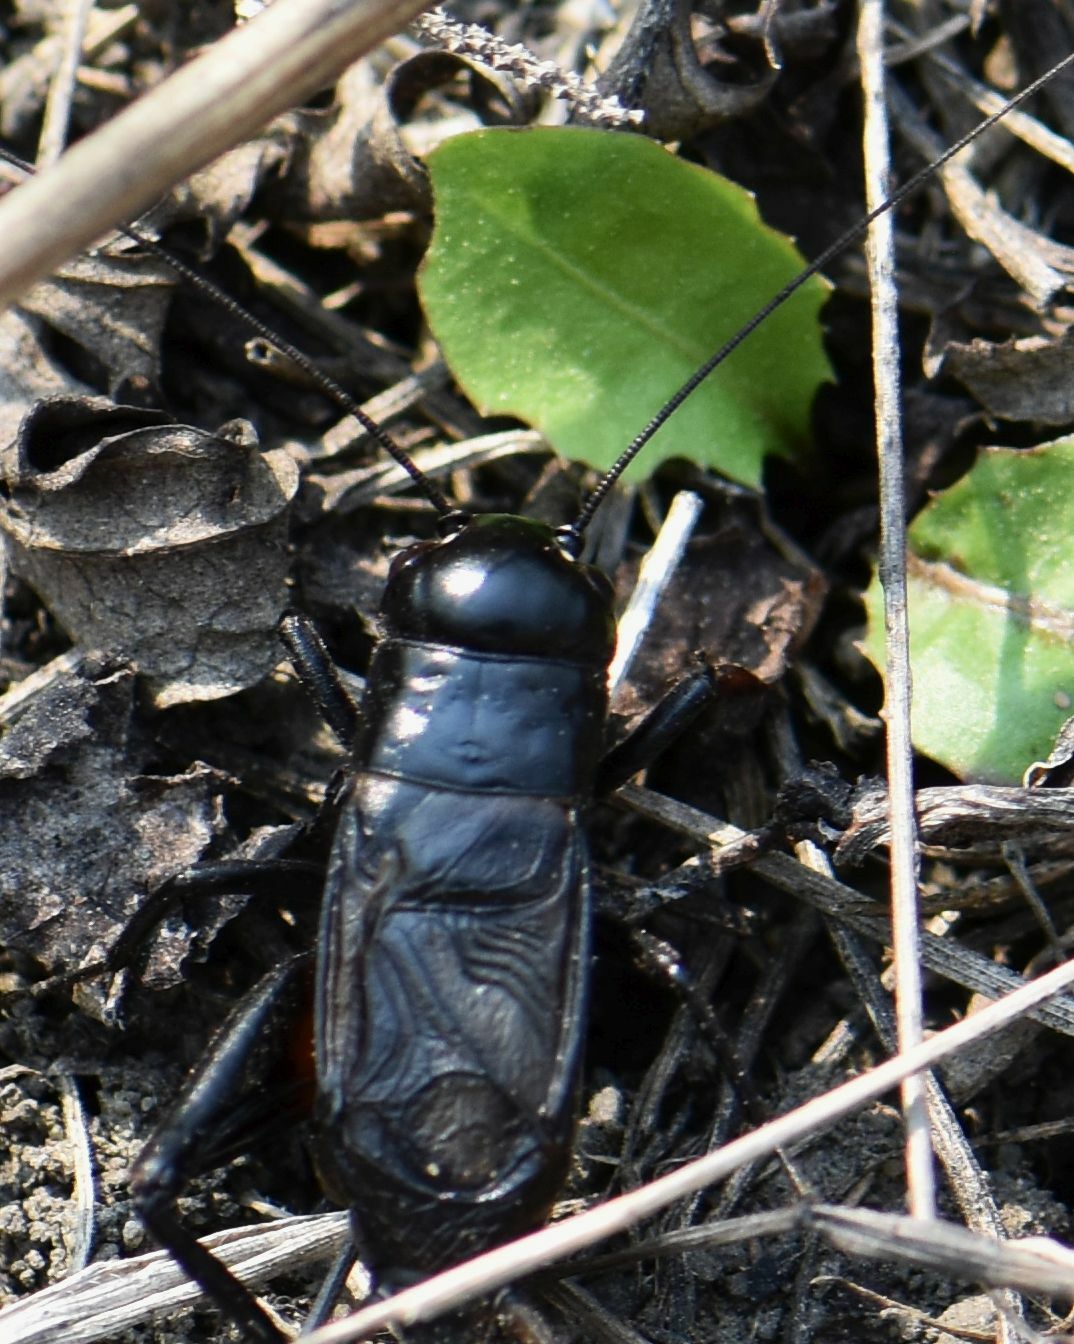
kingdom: Animalia
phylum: Arthropoda
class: Insecta
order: Orthoptera
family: Gryllidae
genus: Gryllus
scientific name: Gryllus pennsylvanicus
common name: Fall field cricket
